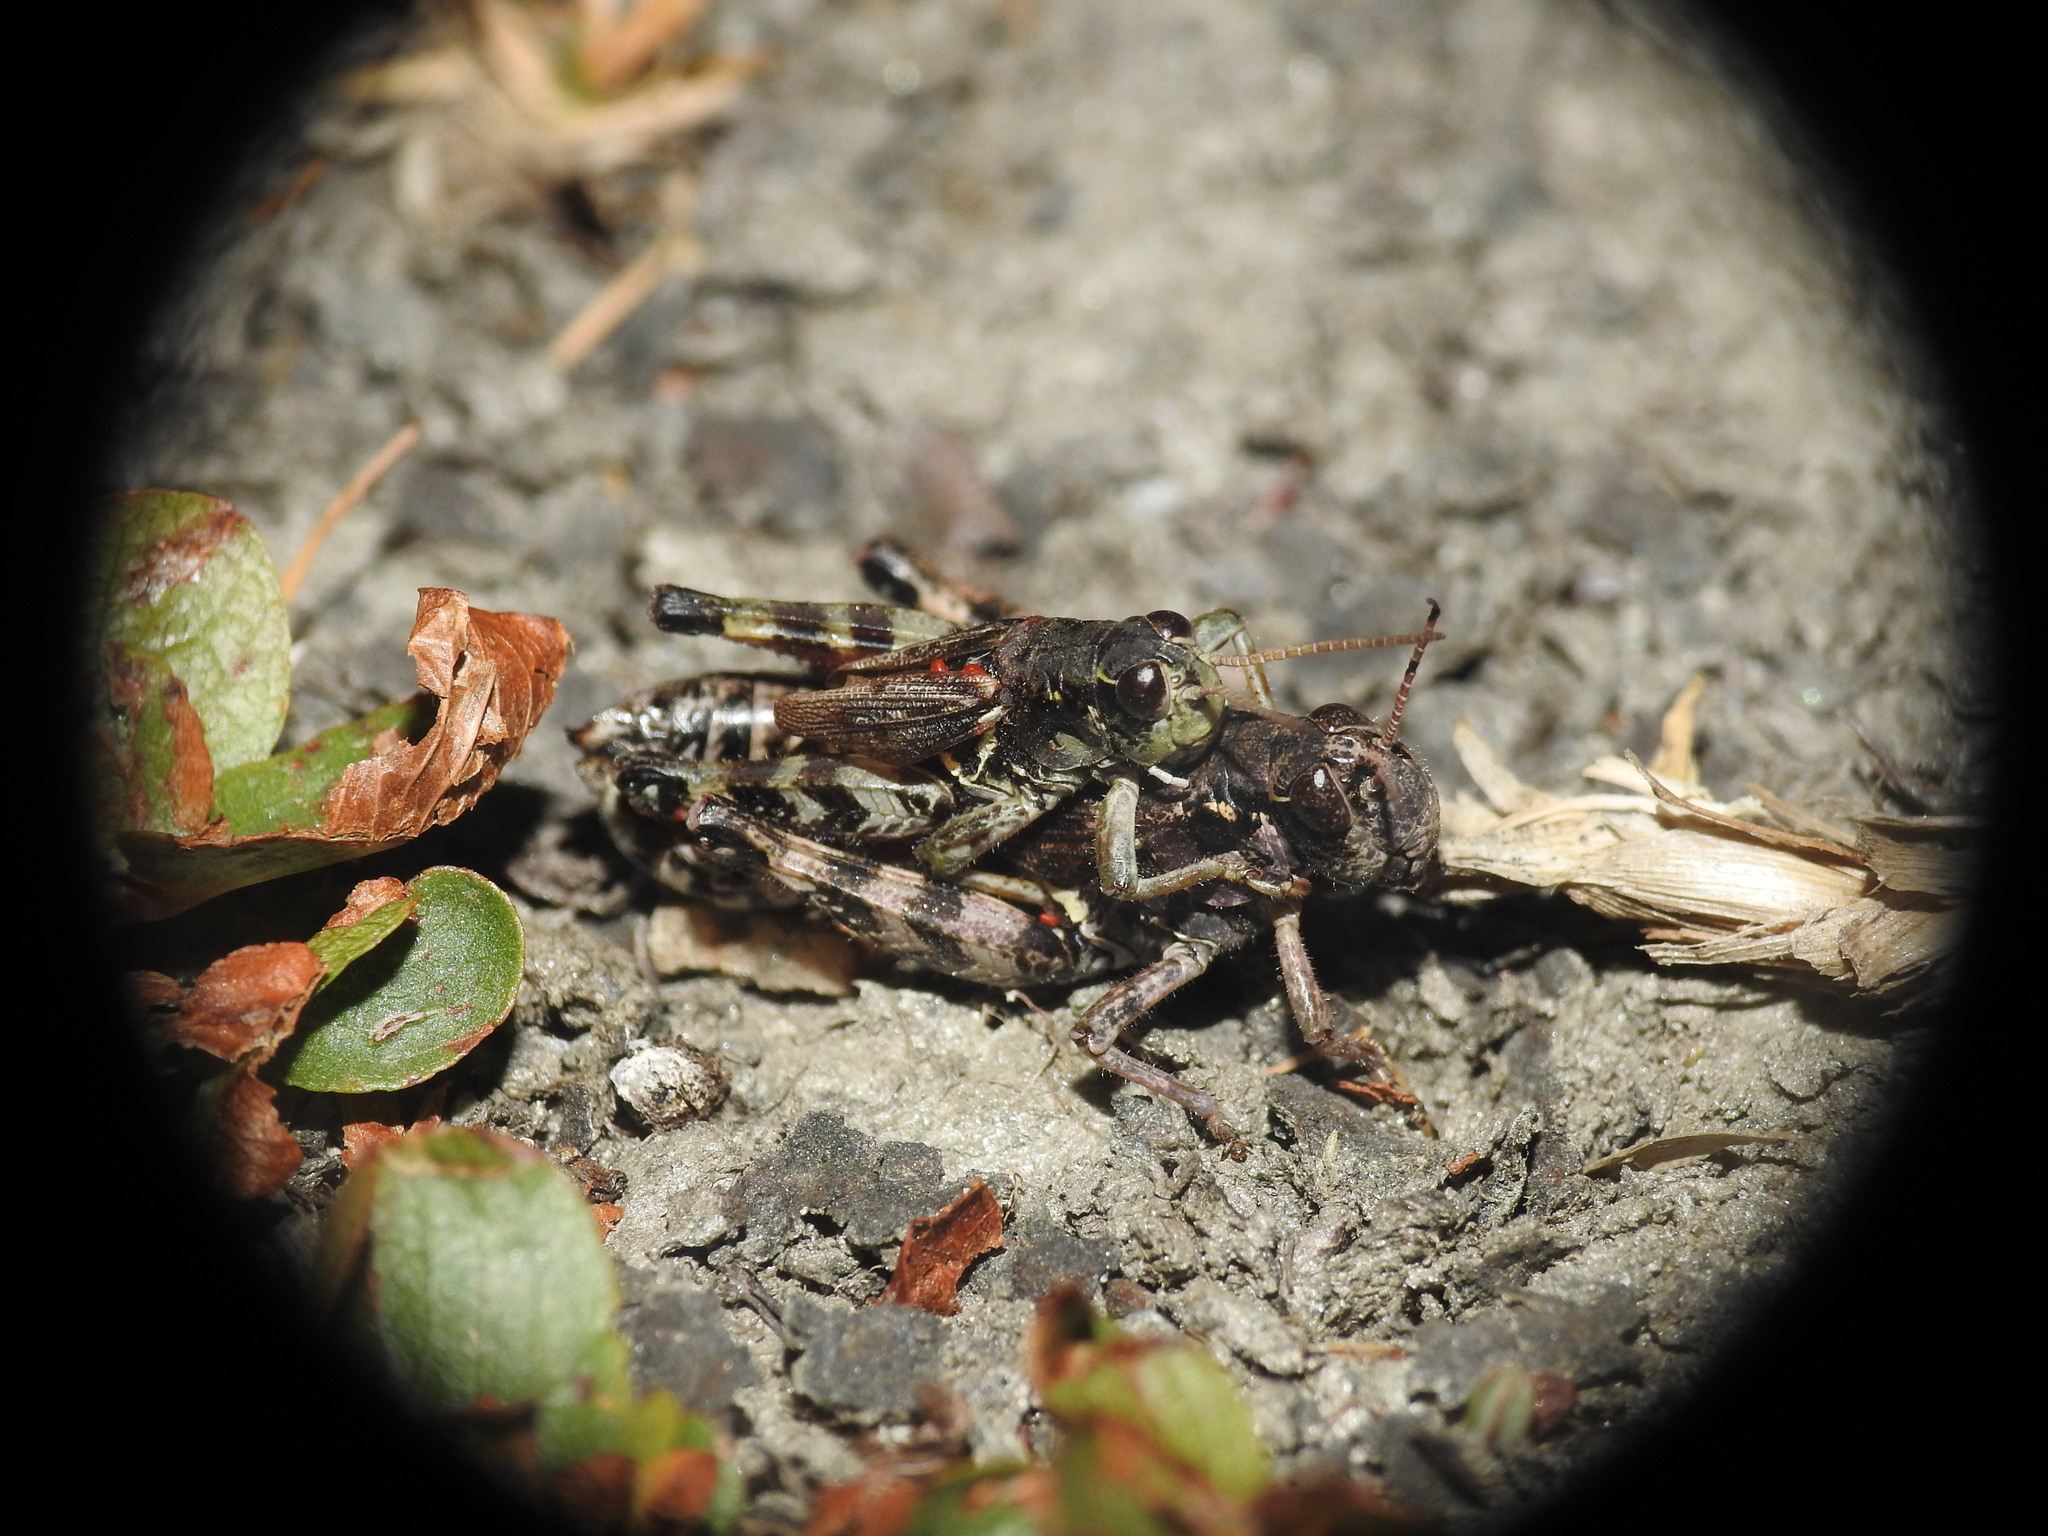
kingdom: Animalia
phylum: Arthropoda
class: Insecta
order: Orthoptera
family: Acrididae
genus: Bohemanella
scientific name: Bohemanella frigida
